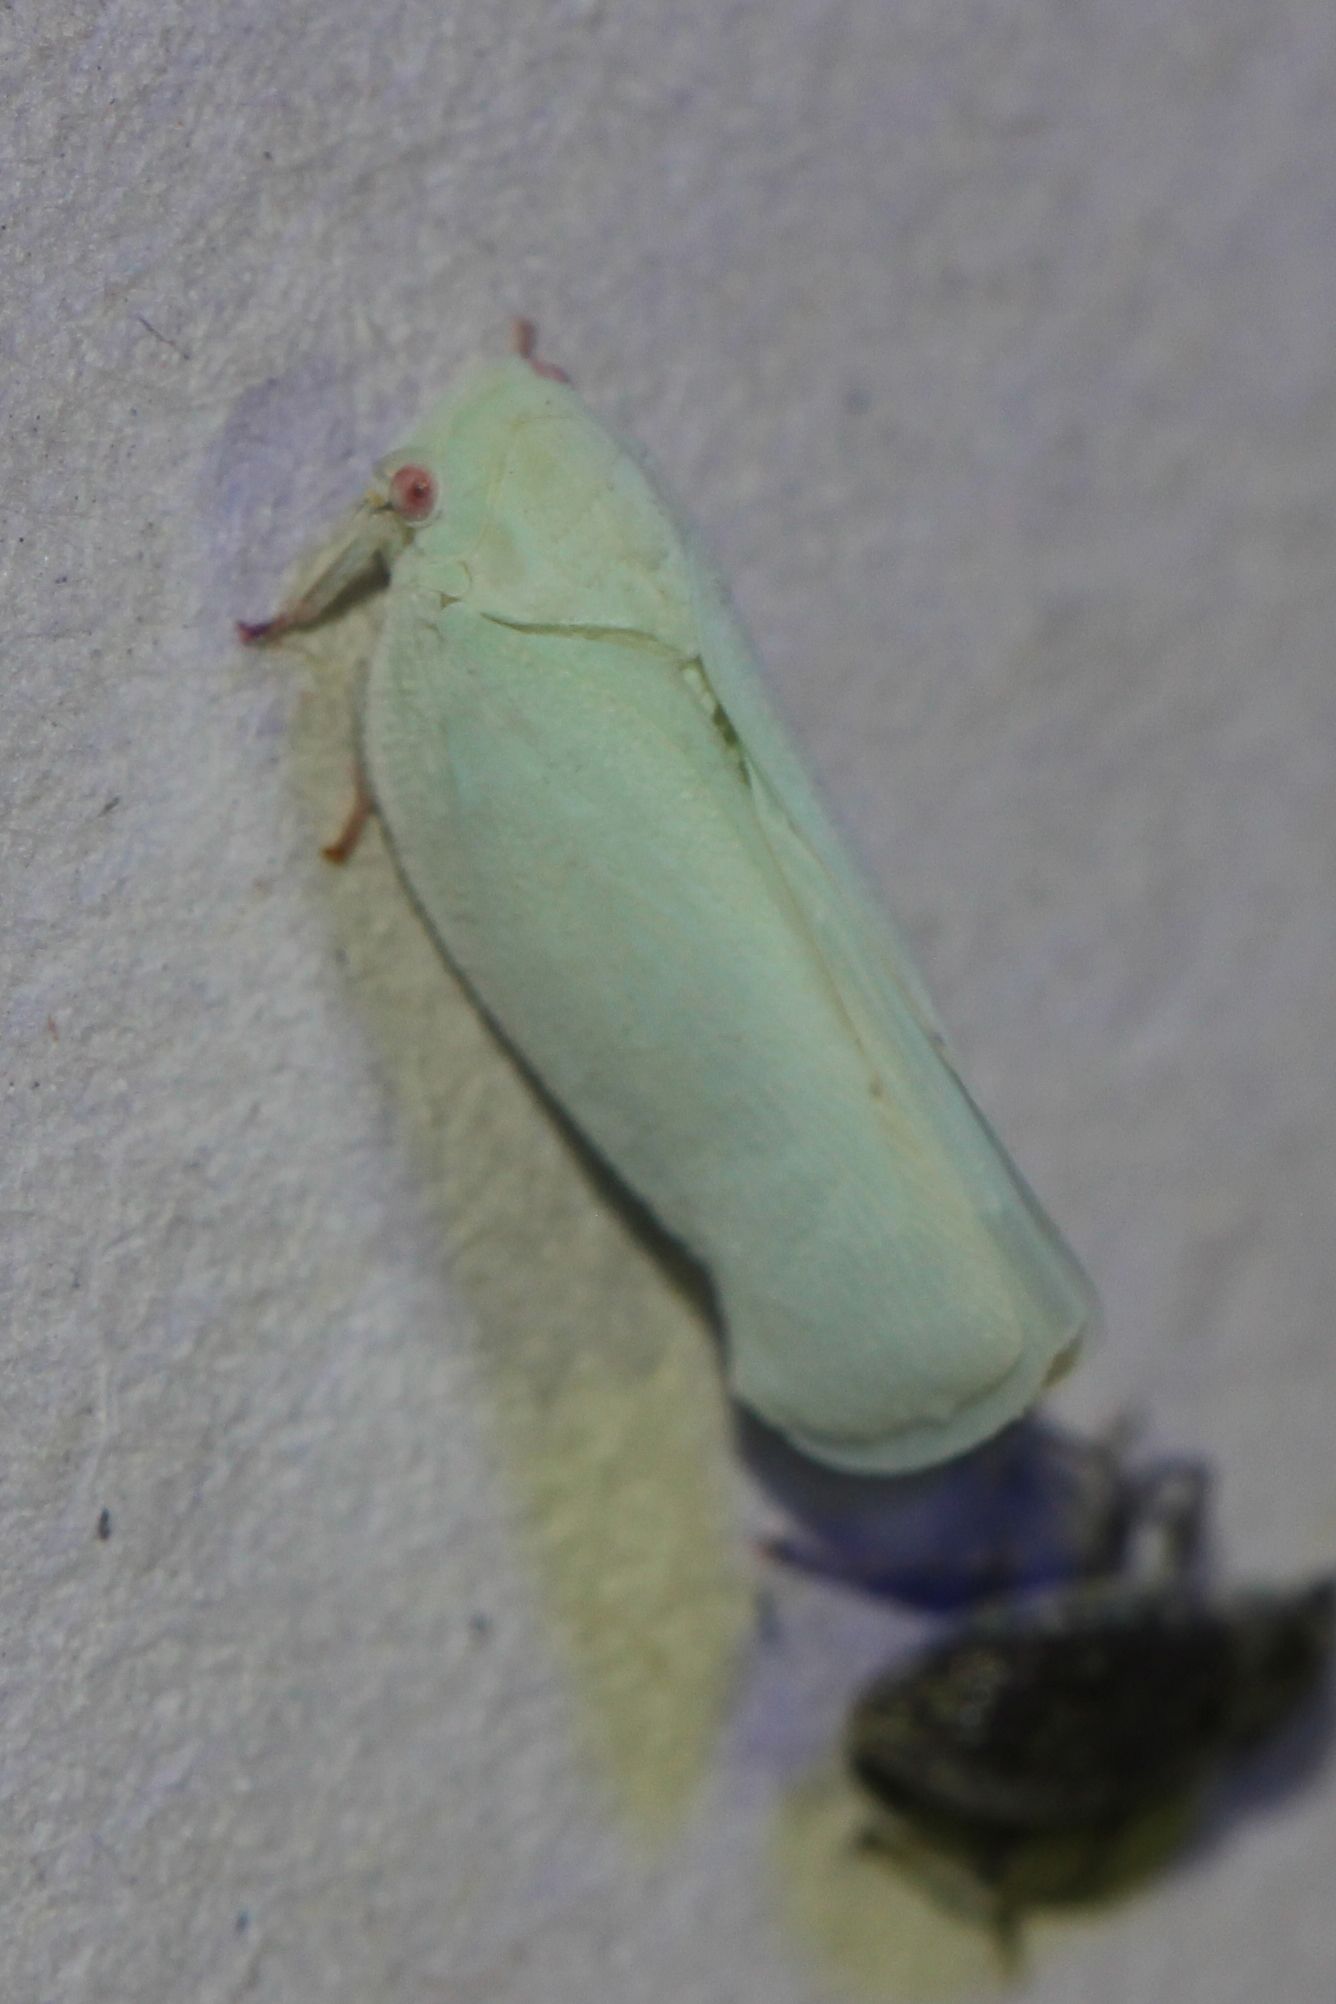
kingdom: Animalia
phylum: Arthropoda
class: Insecta
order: Hemiptera
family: Flatidae
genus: Flatormenis
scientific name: Flatormenis proxima
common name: Northern flatid planthopper
